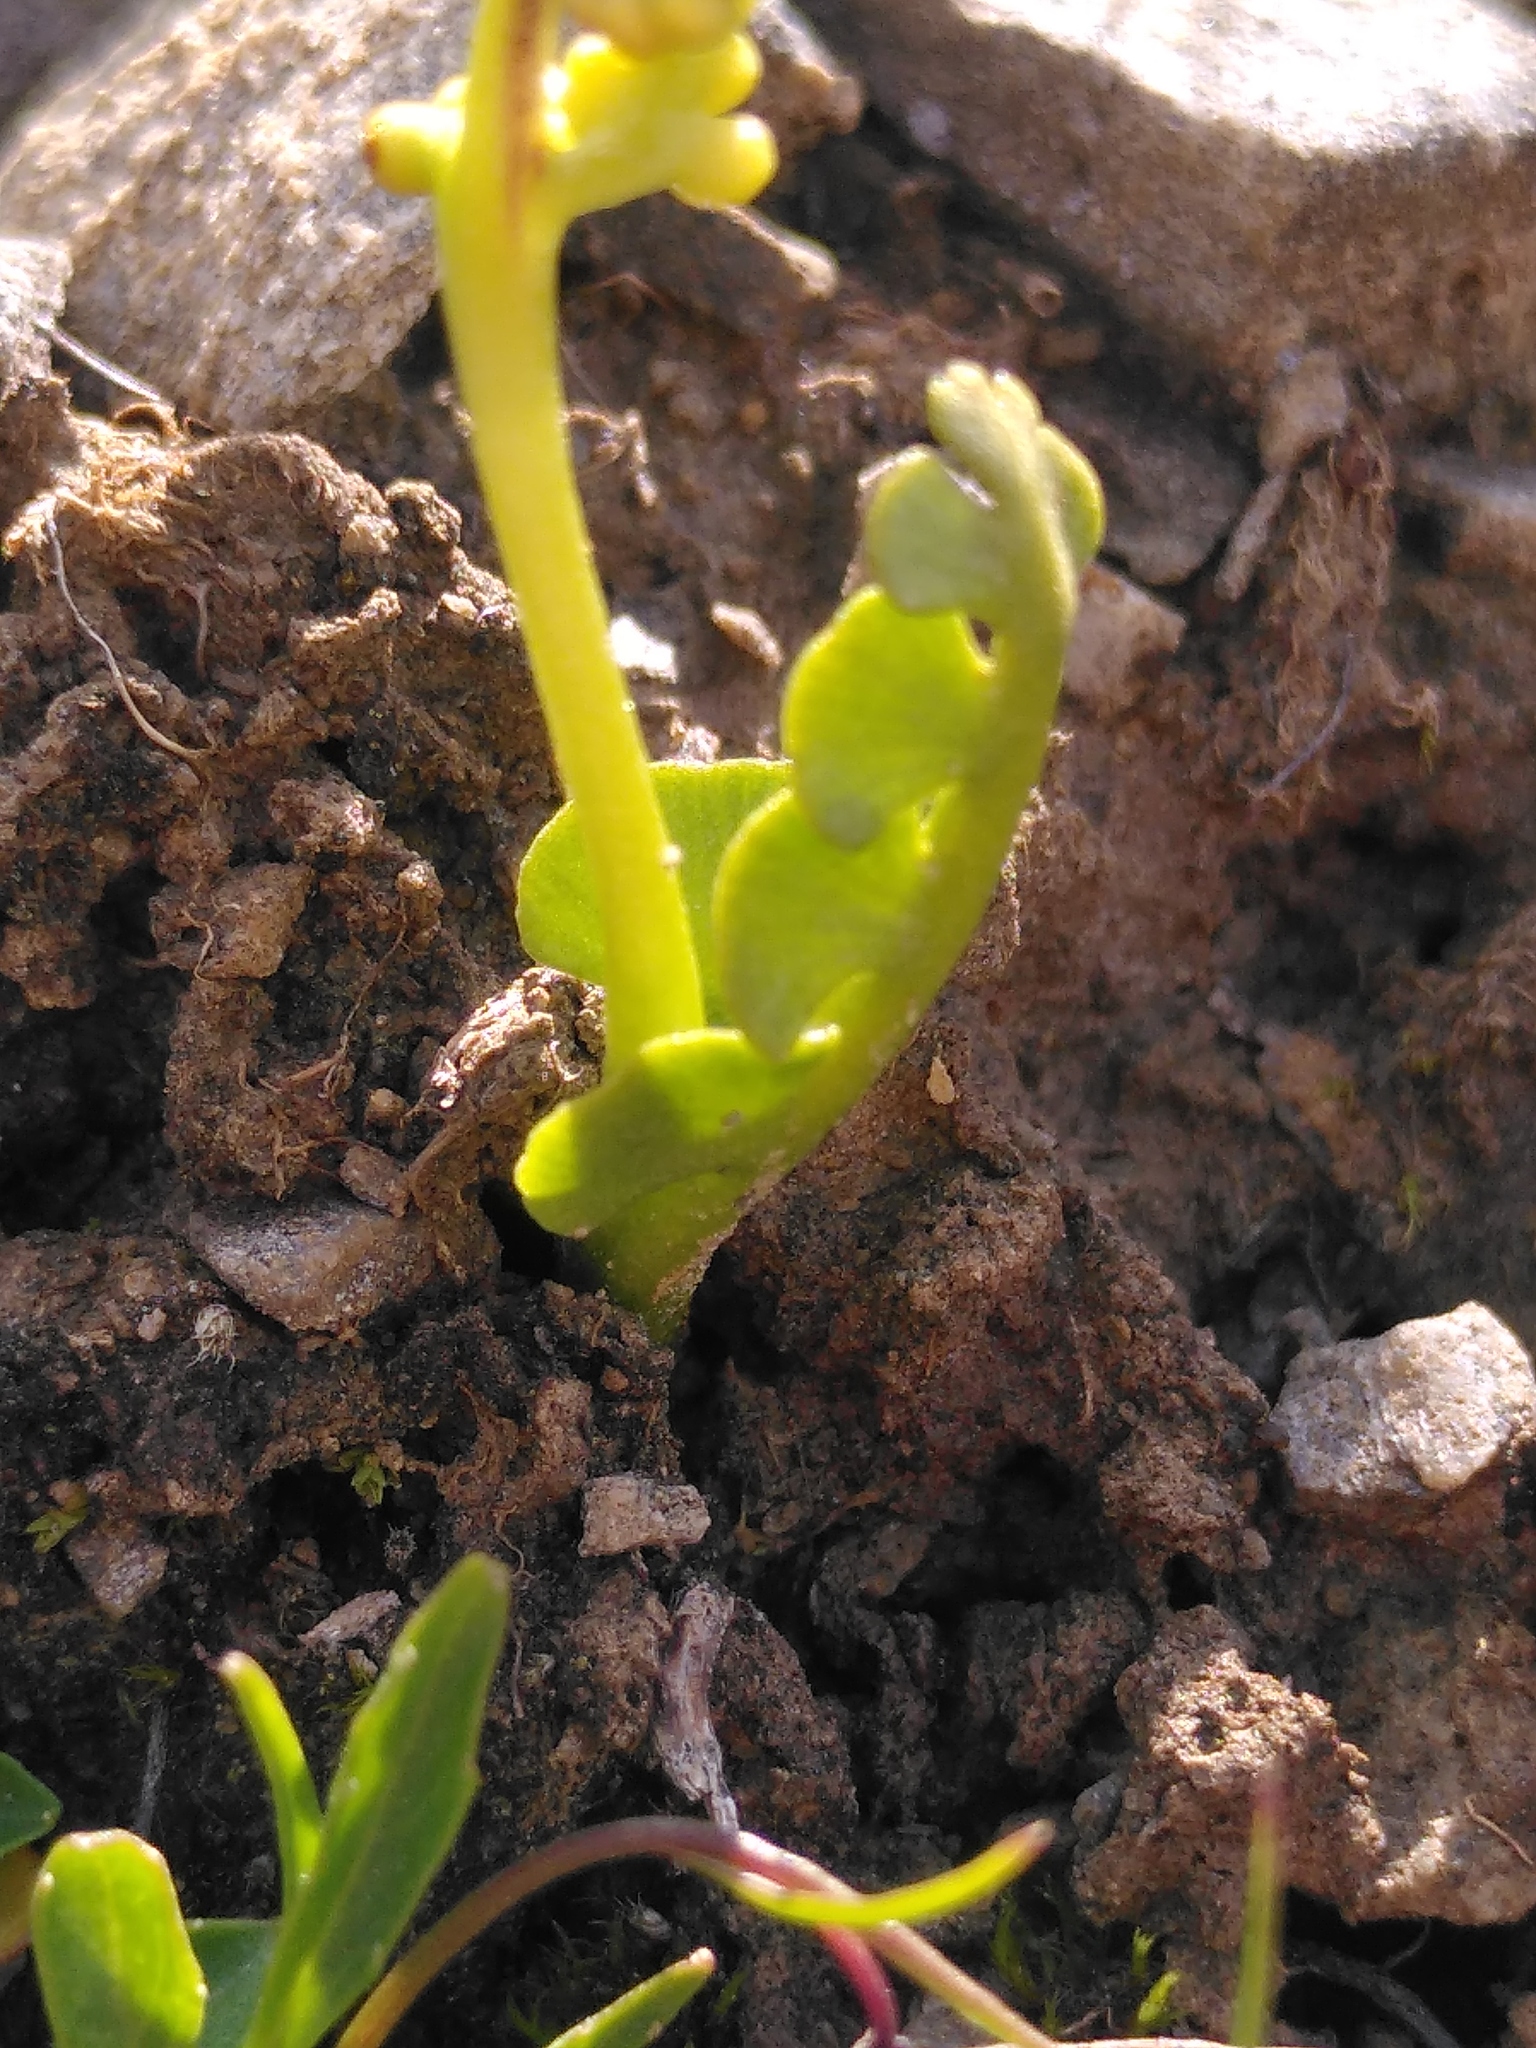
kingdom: Plantae
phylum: Tracheophyta
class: Polypodiopsida
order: Ophioglossales
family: Ophioglossaceae
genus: Botrychium
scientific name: Botrychium lunaria
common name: Moonwort
